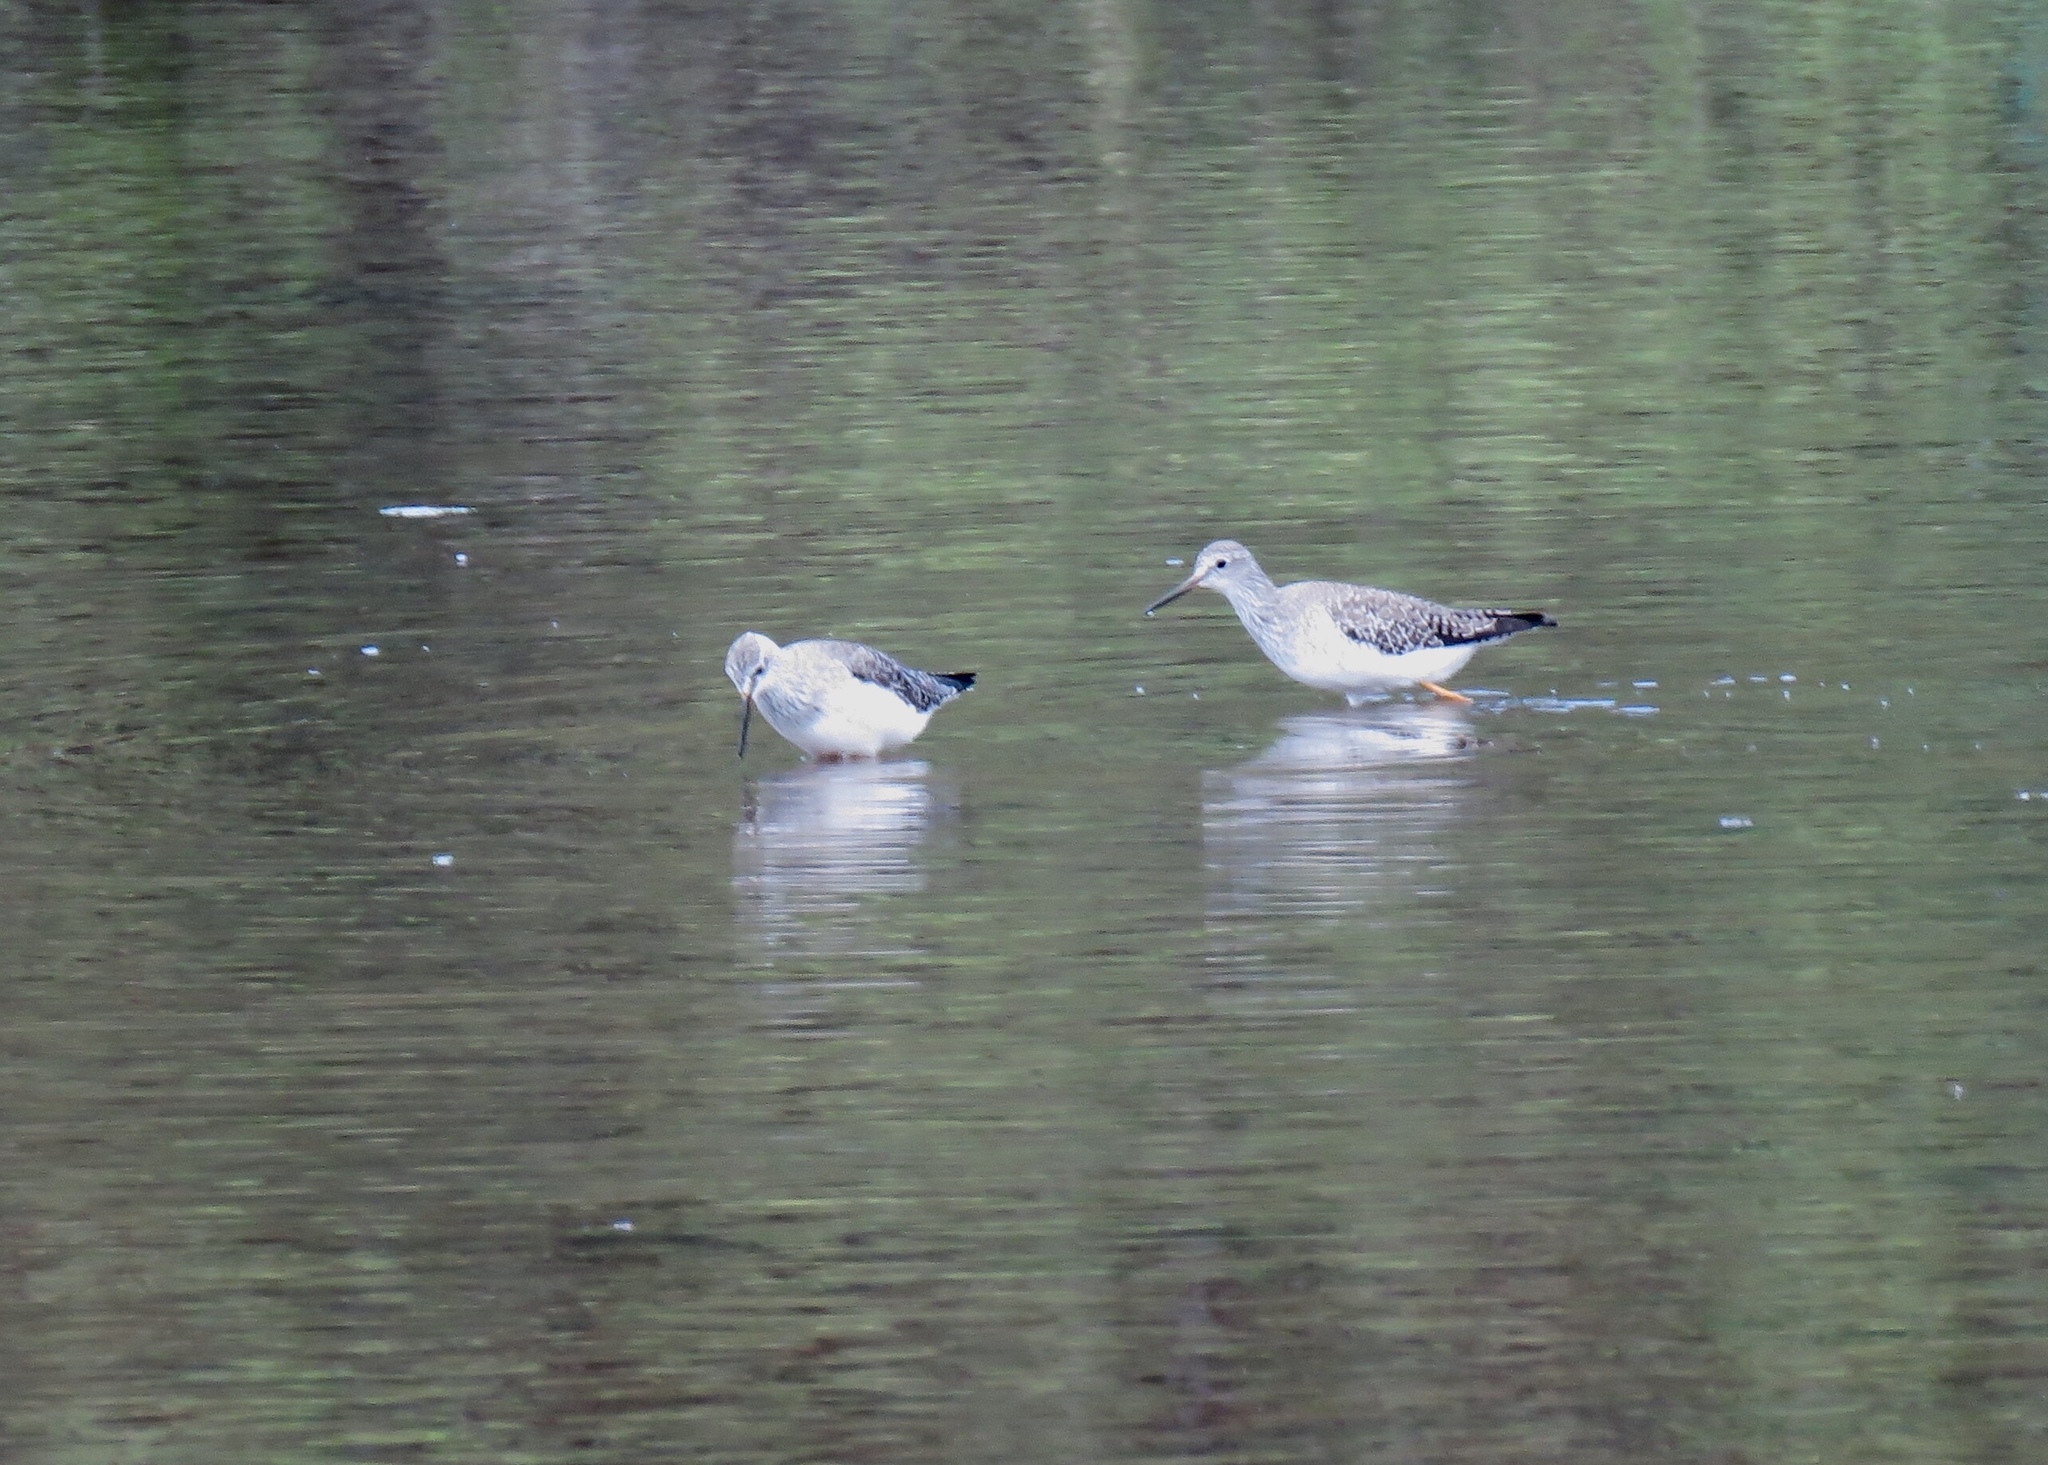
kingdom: Animalia
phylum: Chordata
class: Aves
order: Charadriiformes
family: Scolopacidae
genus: Tringa
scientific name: Tringa flavipes
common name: Lesser yellowlegs
